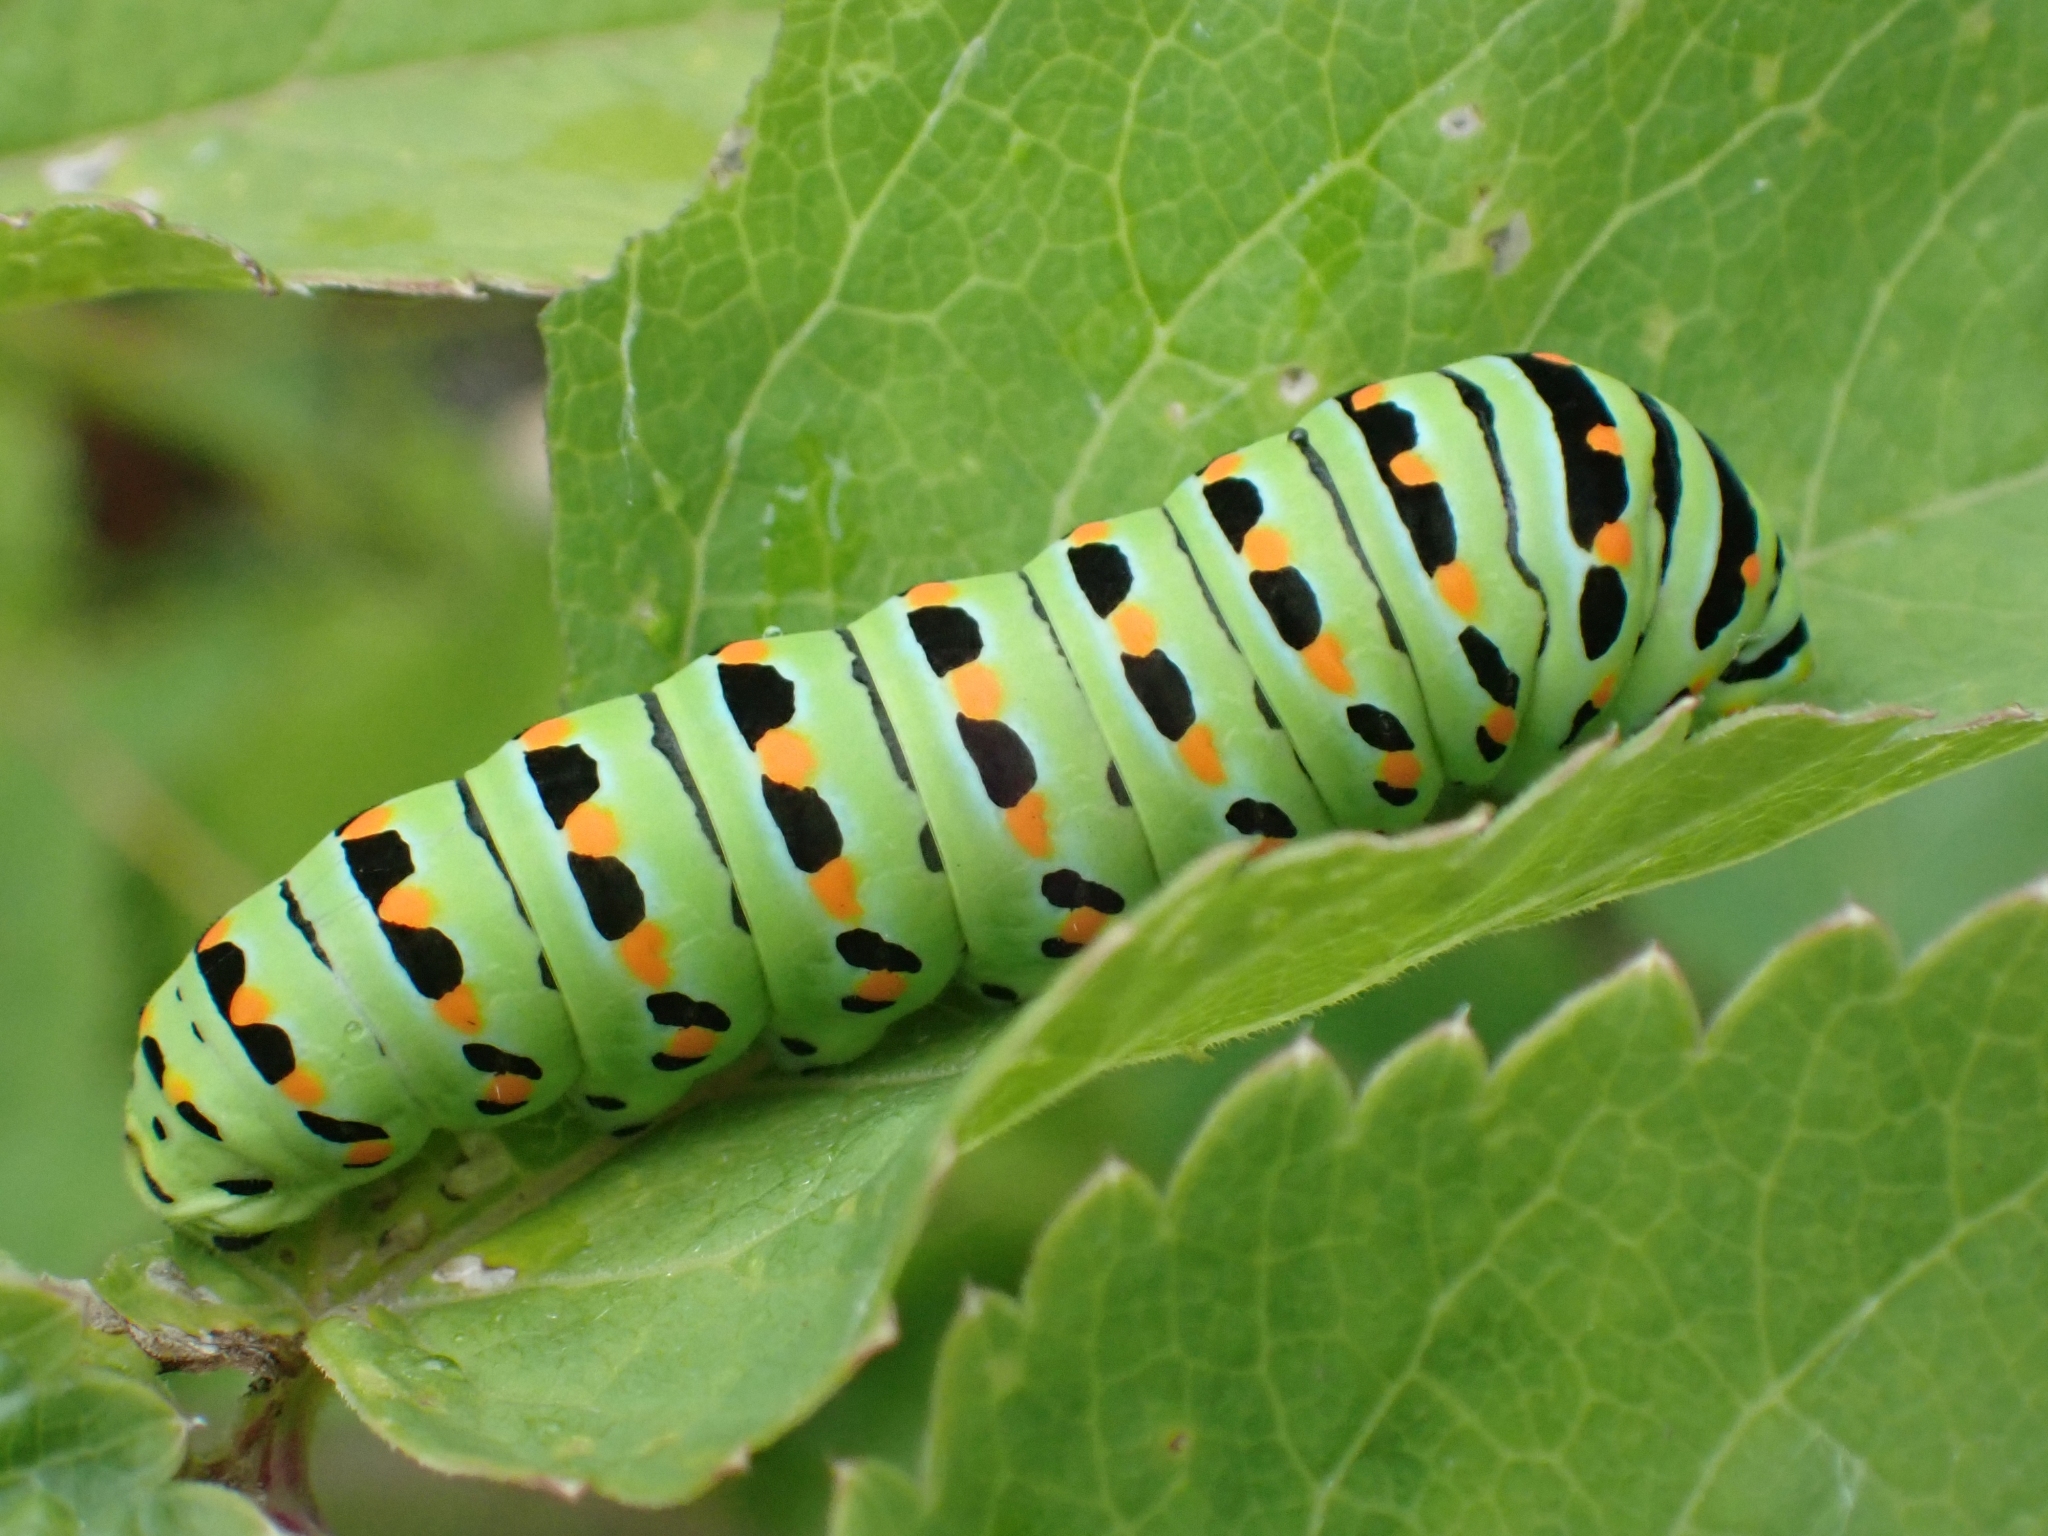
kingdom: Animalia
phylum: Arthropoda
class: Insecta
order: Lepidoptera
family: Papilionidae
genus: Papilio
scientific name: Papilio zelicaon
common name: Anise swallowtail
